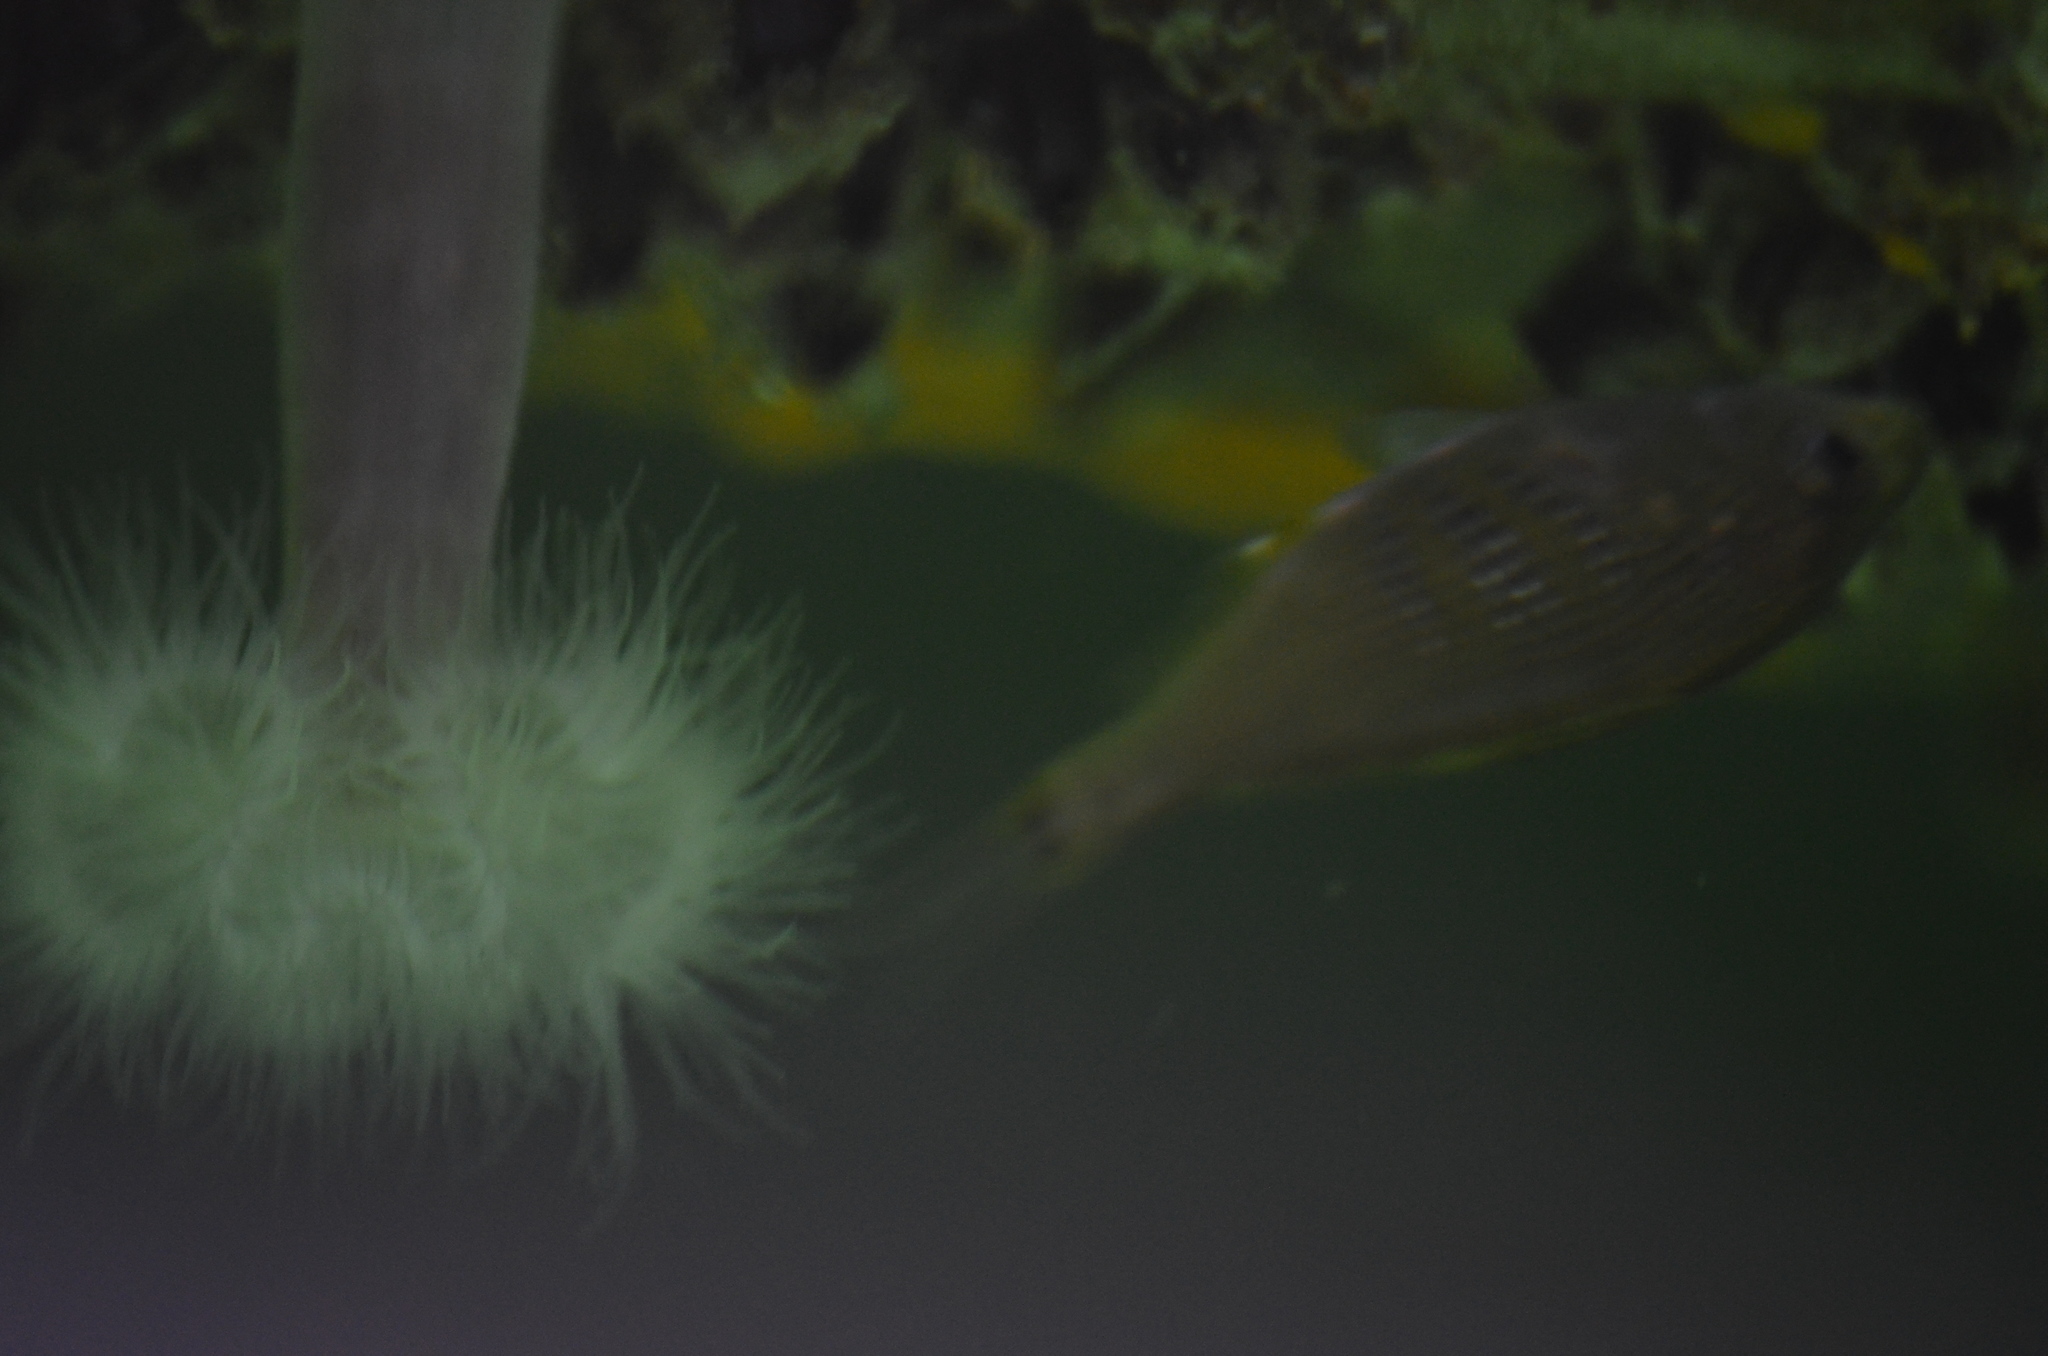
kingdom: Animalia
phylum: Chordata
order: Perciformes
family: Embiotocidae
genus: Cymatogaster
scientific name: Cymatogaster aggregata
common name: Shiner perch
